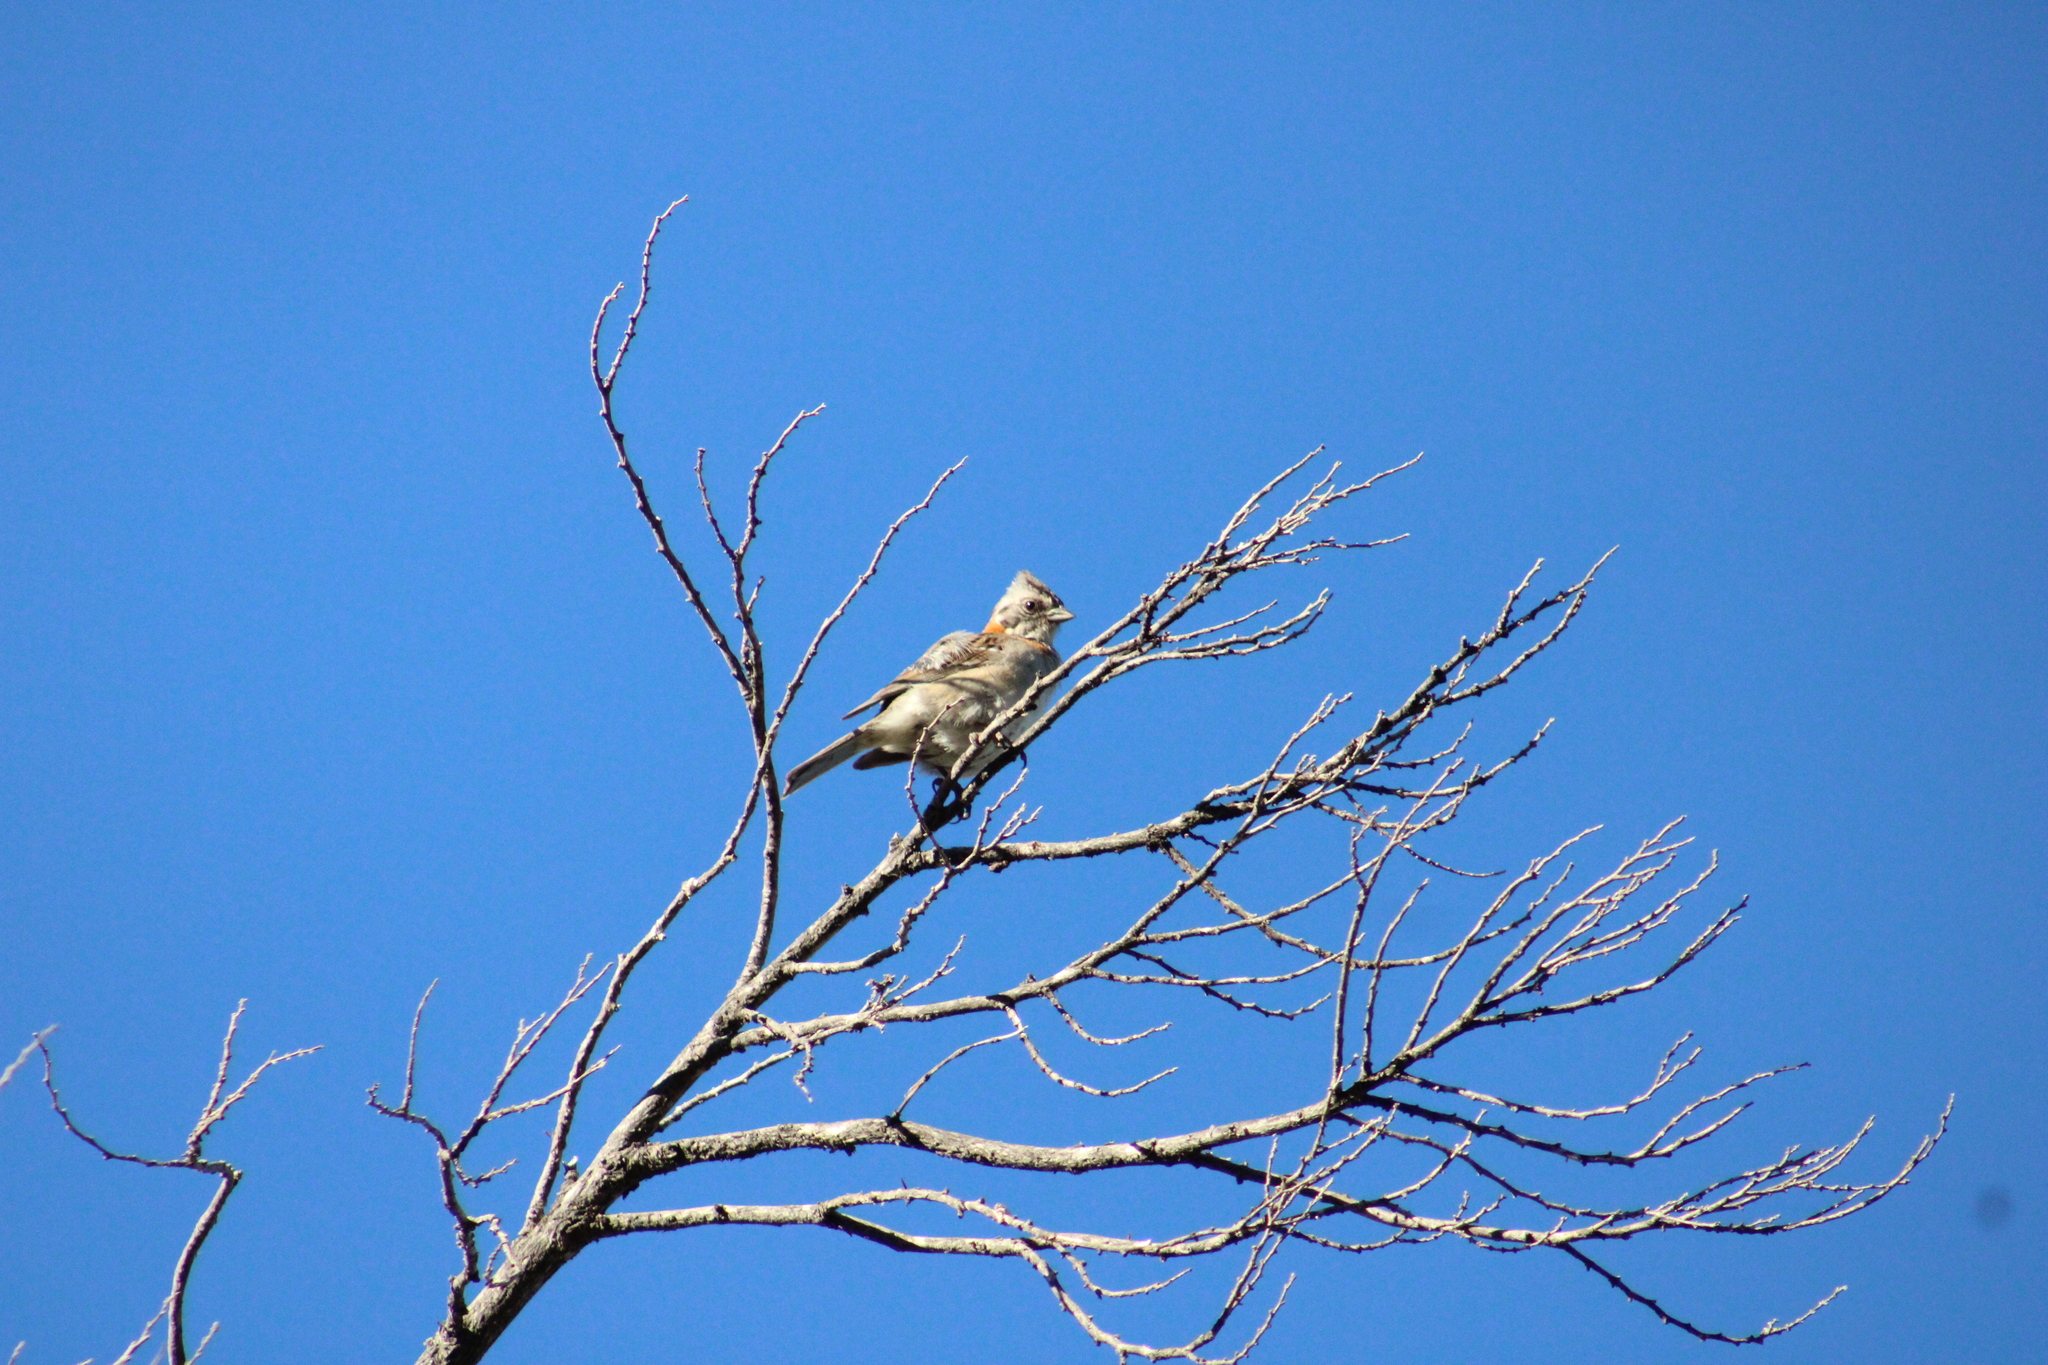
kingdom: Animalia
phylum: Chordata
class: Aves
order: Passeriformes
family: Passerellidae
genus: Zonotrichia
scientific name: Zonotrichia capensis
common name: Rufous-collared sparrow
